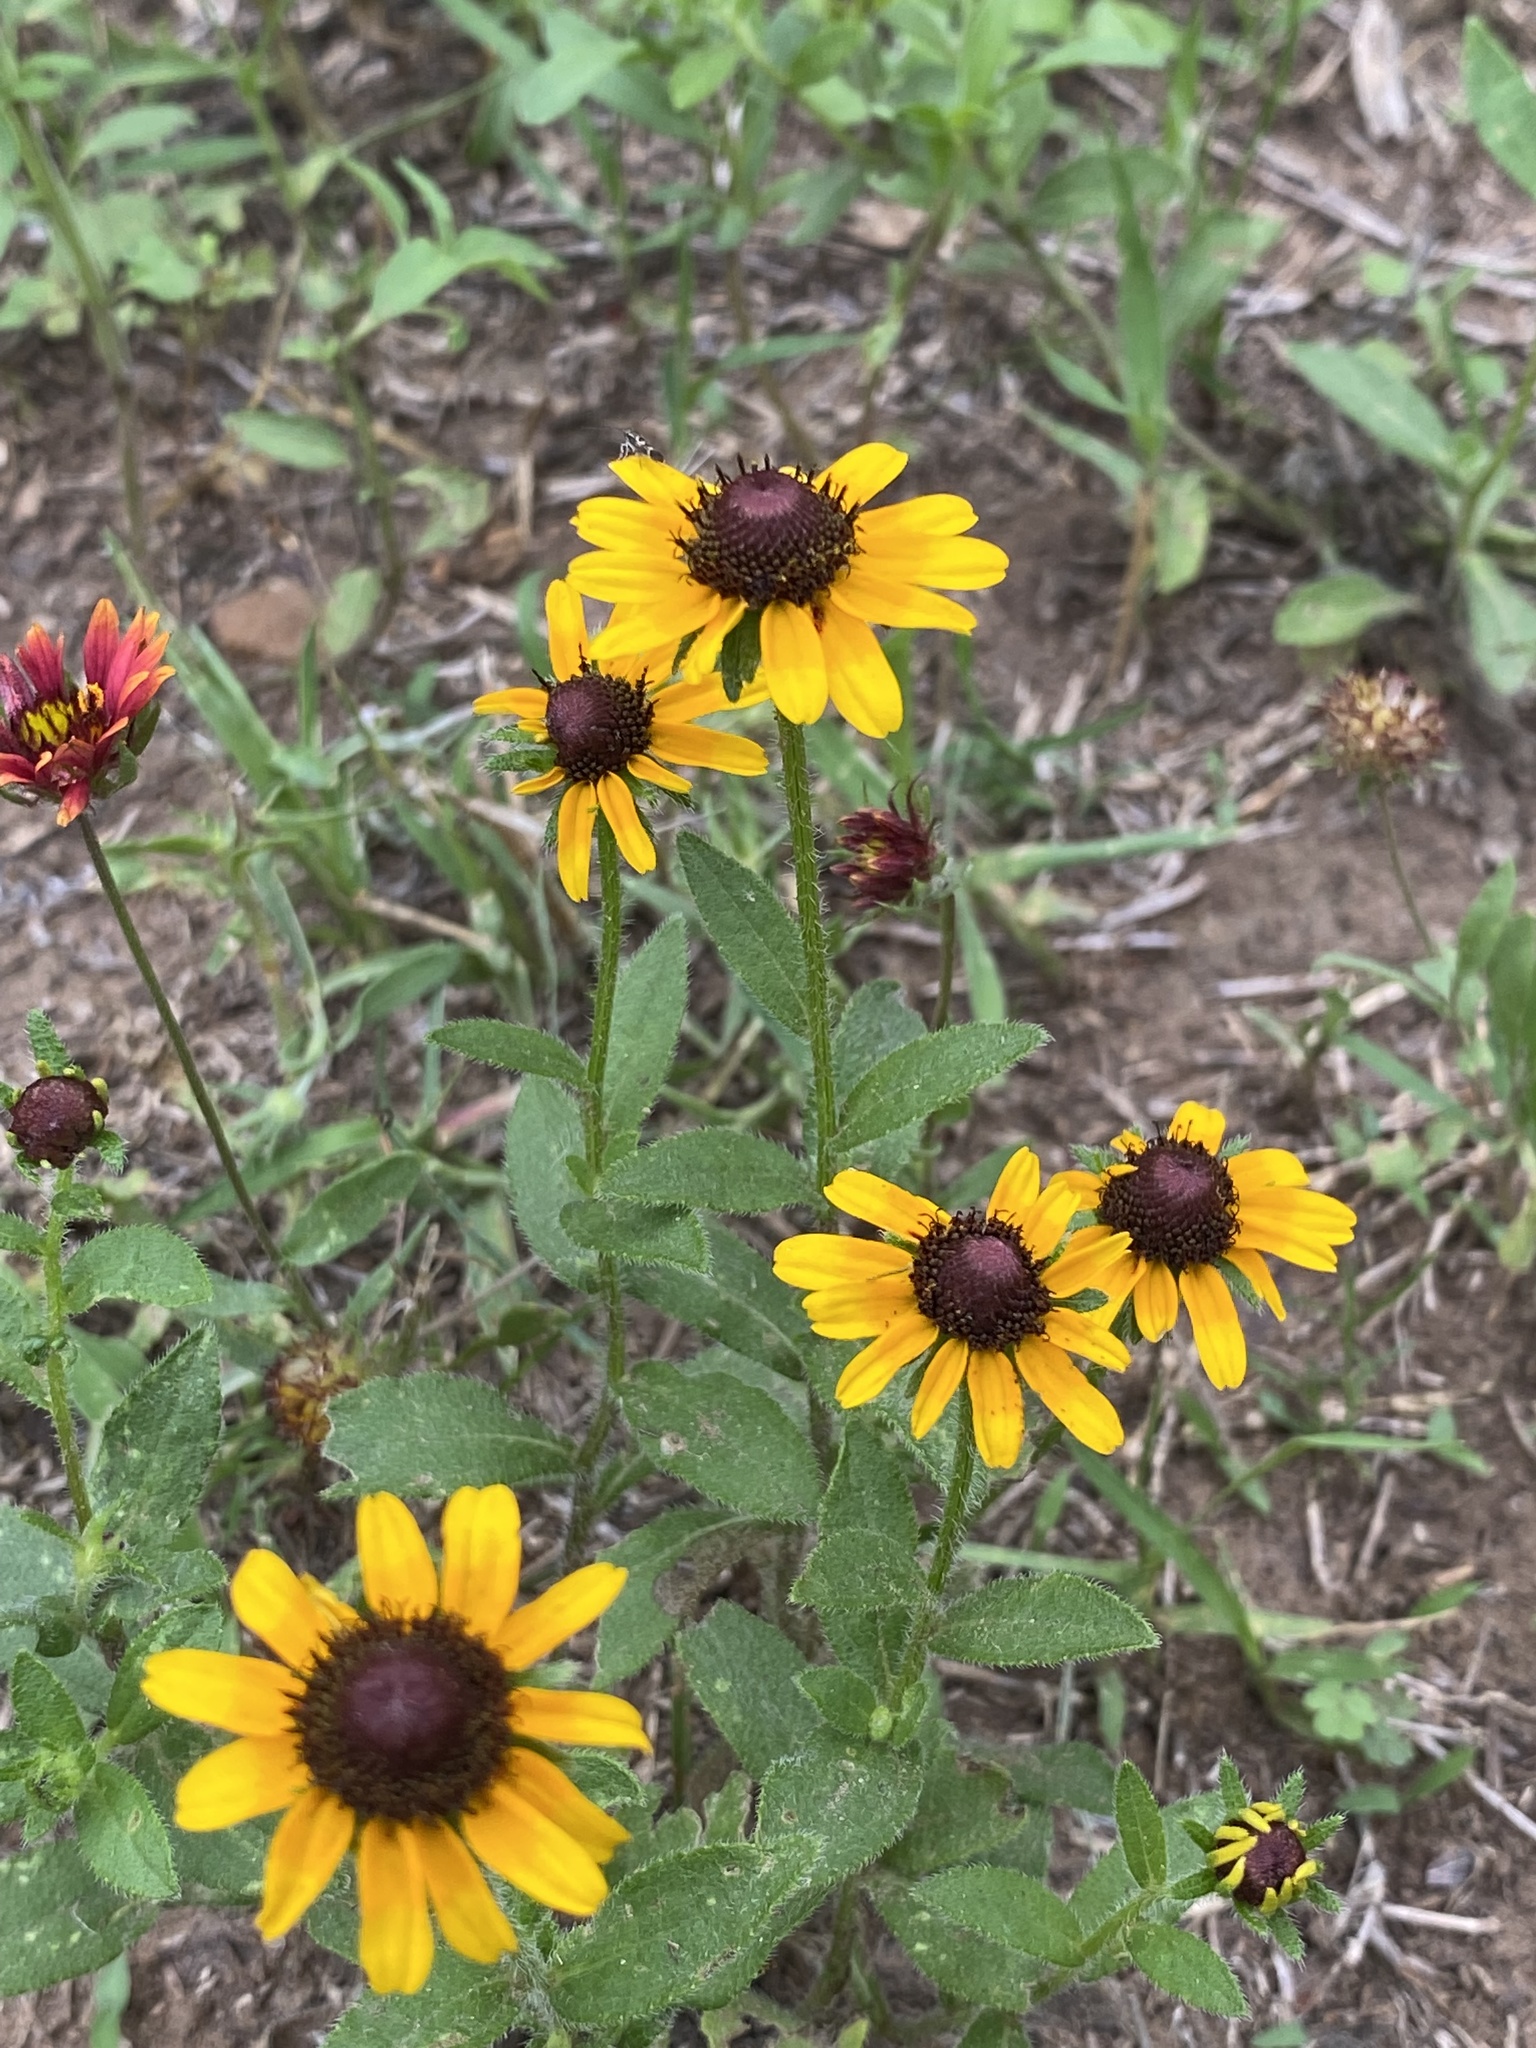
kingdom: Plantae
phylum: Tracheophyta
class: Magnoliopsida
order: Asterales
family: Asteraceae
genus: Rudbeckia
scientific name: Rudbeckia hirta
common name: Black-eyed-susan
